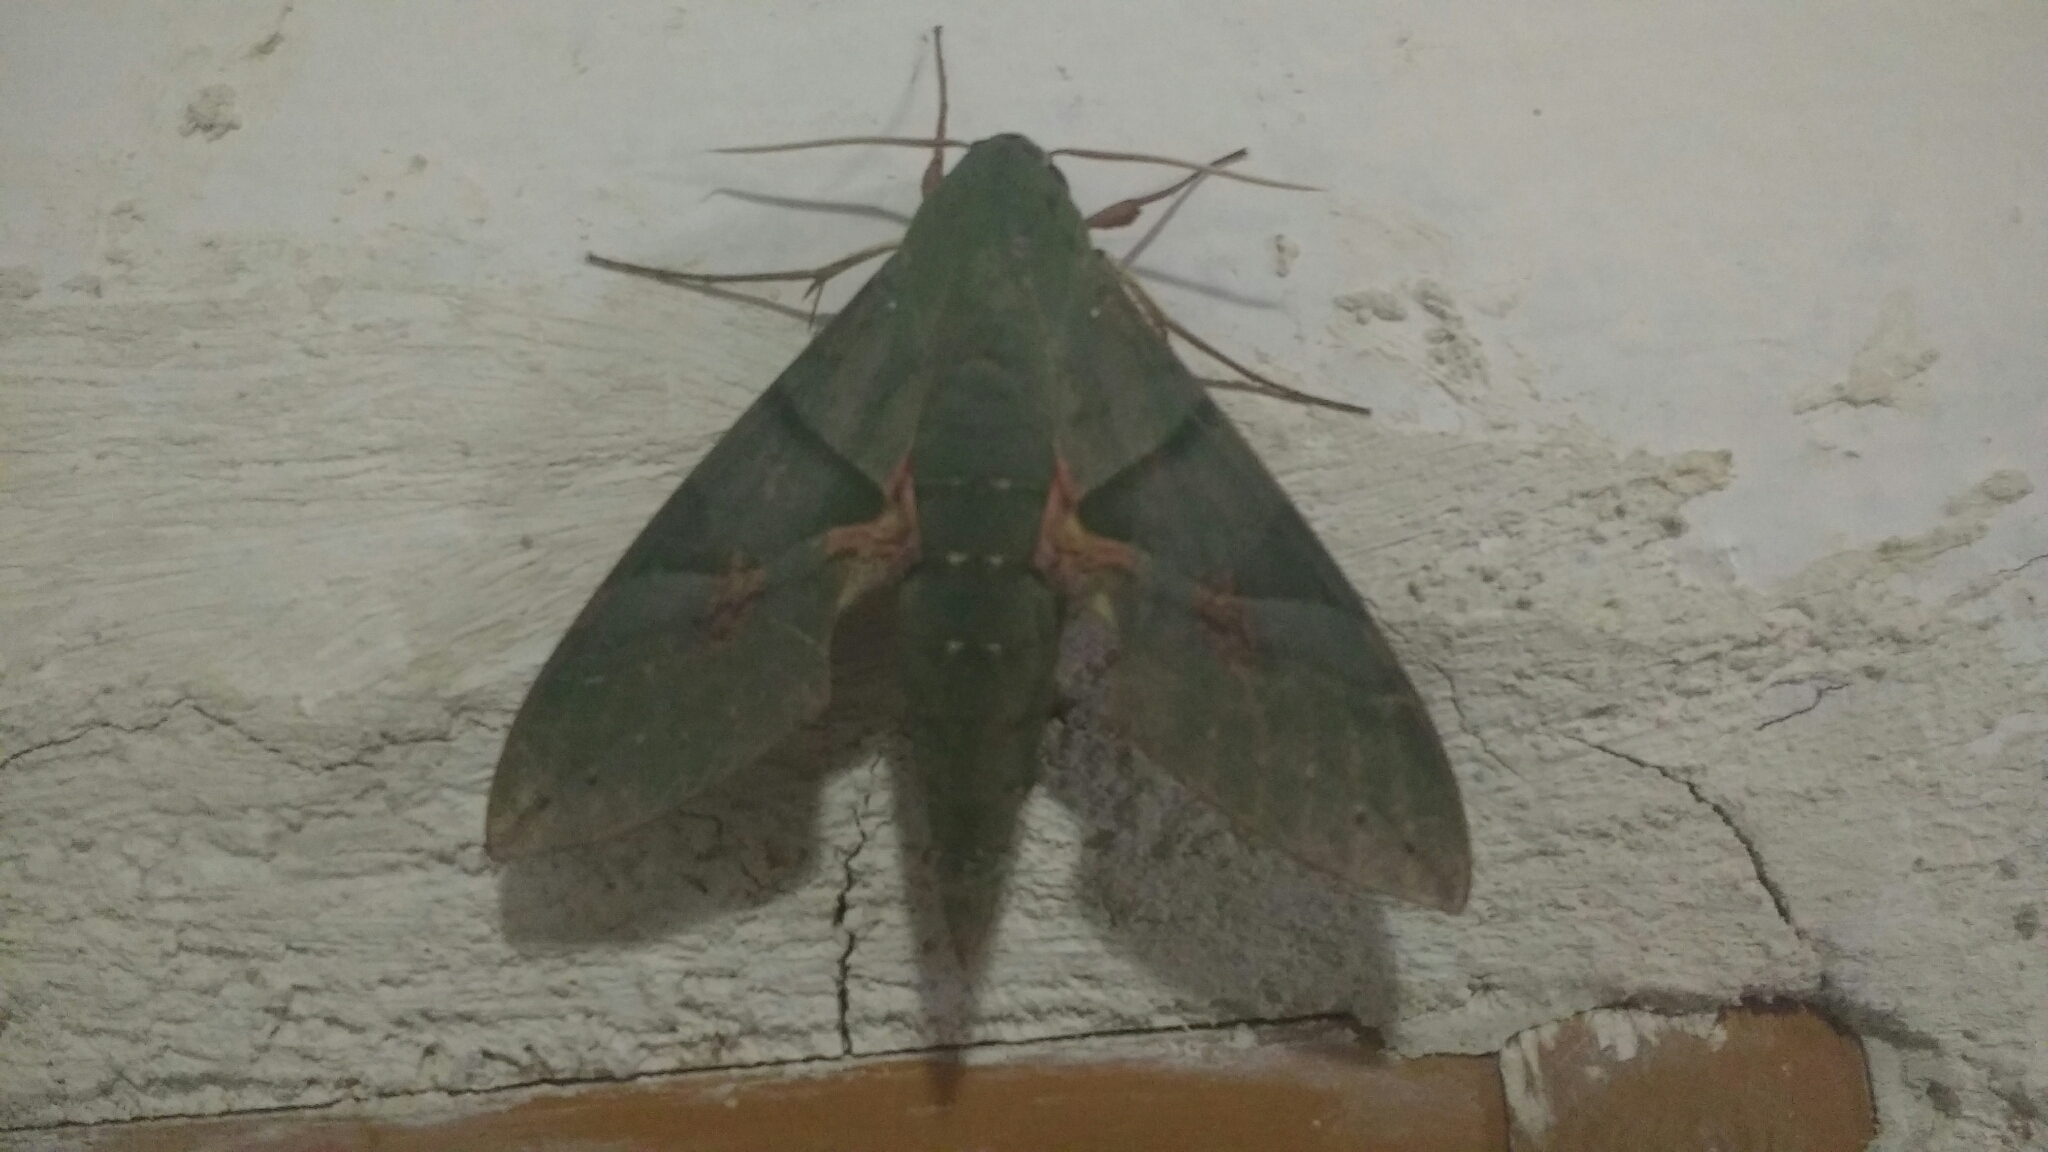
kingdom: Animalia
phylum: Arthropoda
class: Insecta
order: Lepidoptera
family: Sphingidae
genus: Eumorpha
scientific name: Eumorpha labruscae
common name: Gaudy sphinx
